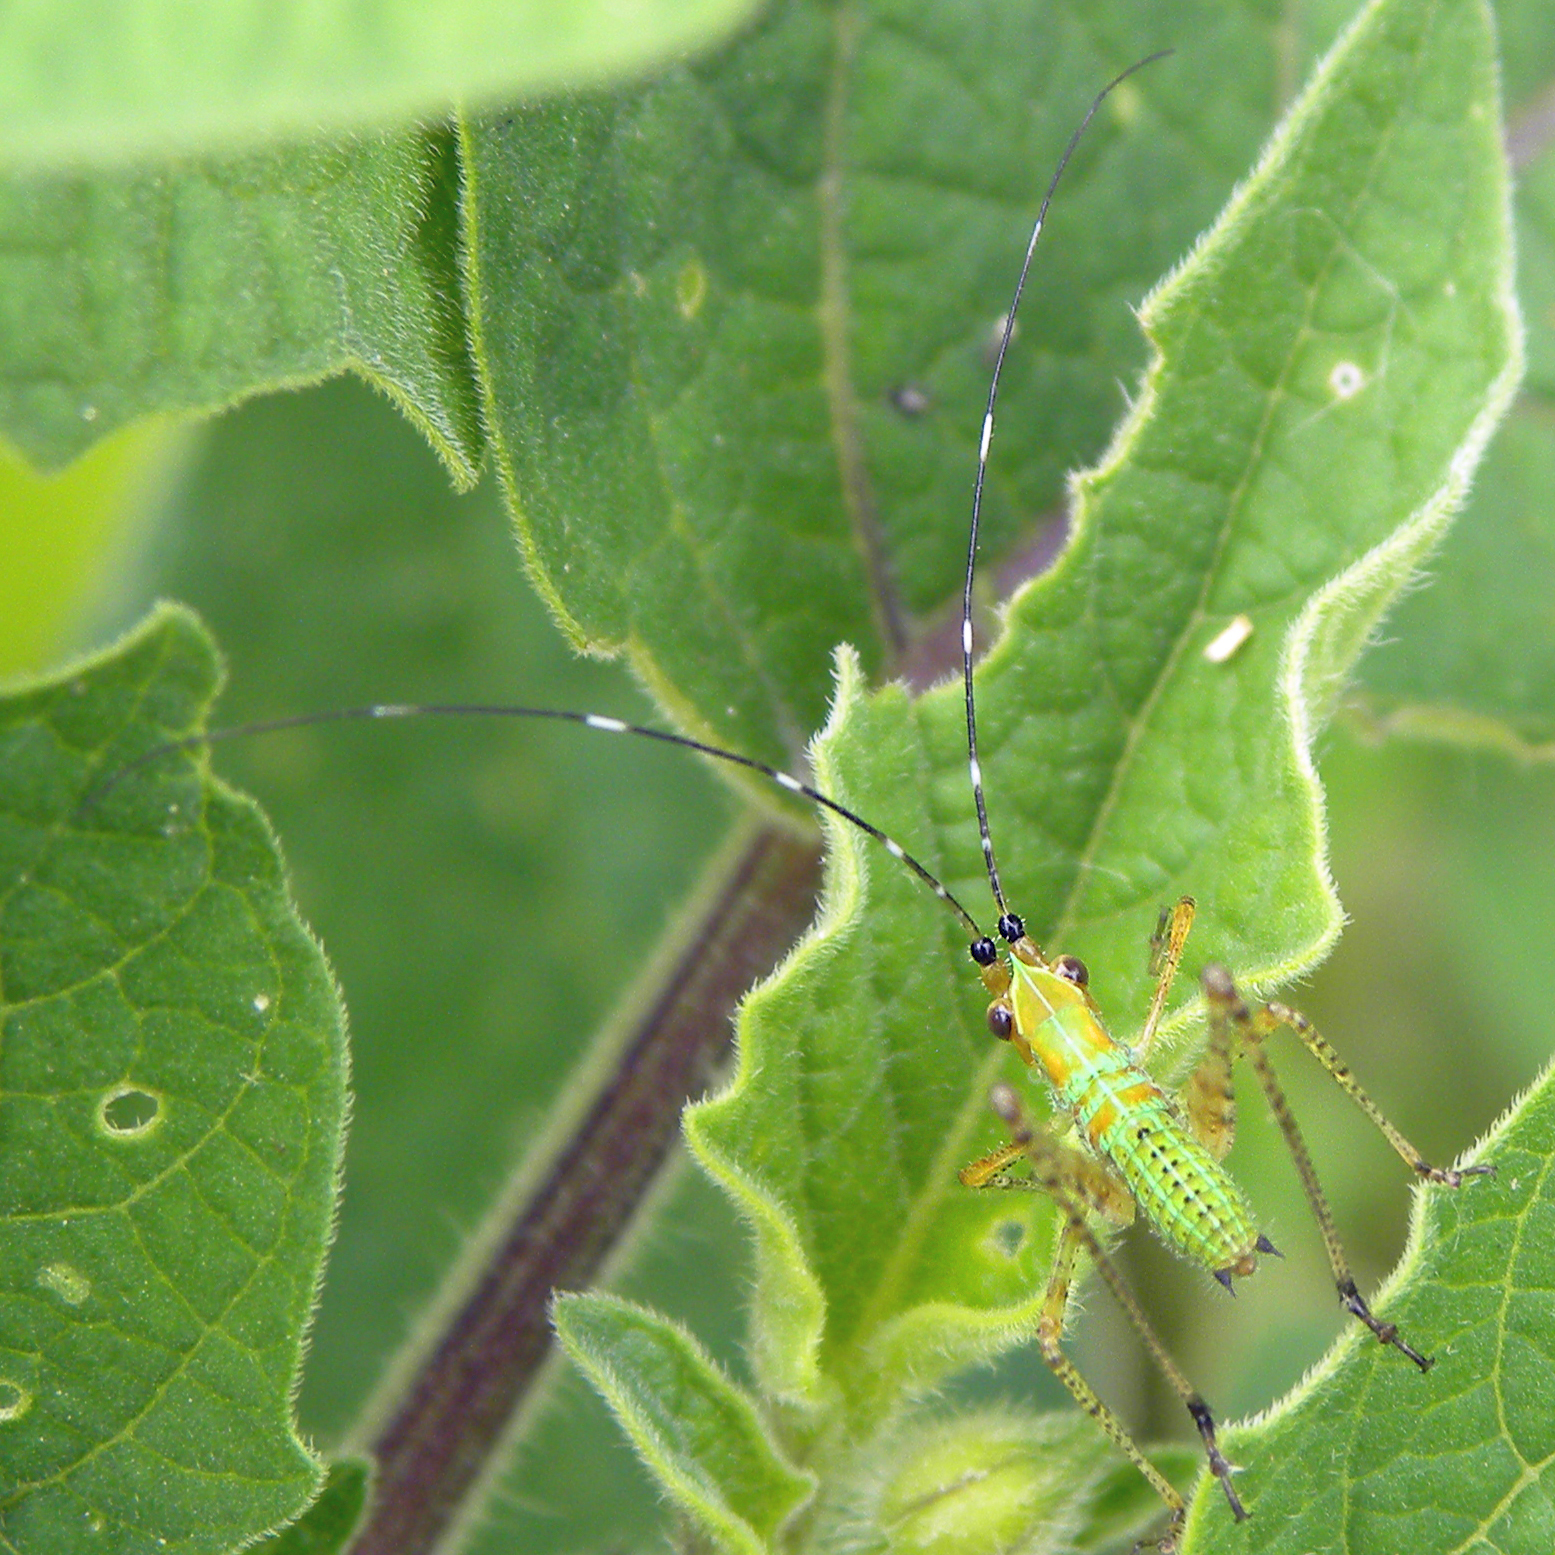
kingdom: Animalia
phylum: Arthropoda
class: Insecta
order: Orthoptera
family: Tettigoniidae
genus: Scudderia
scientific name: Scudderia
